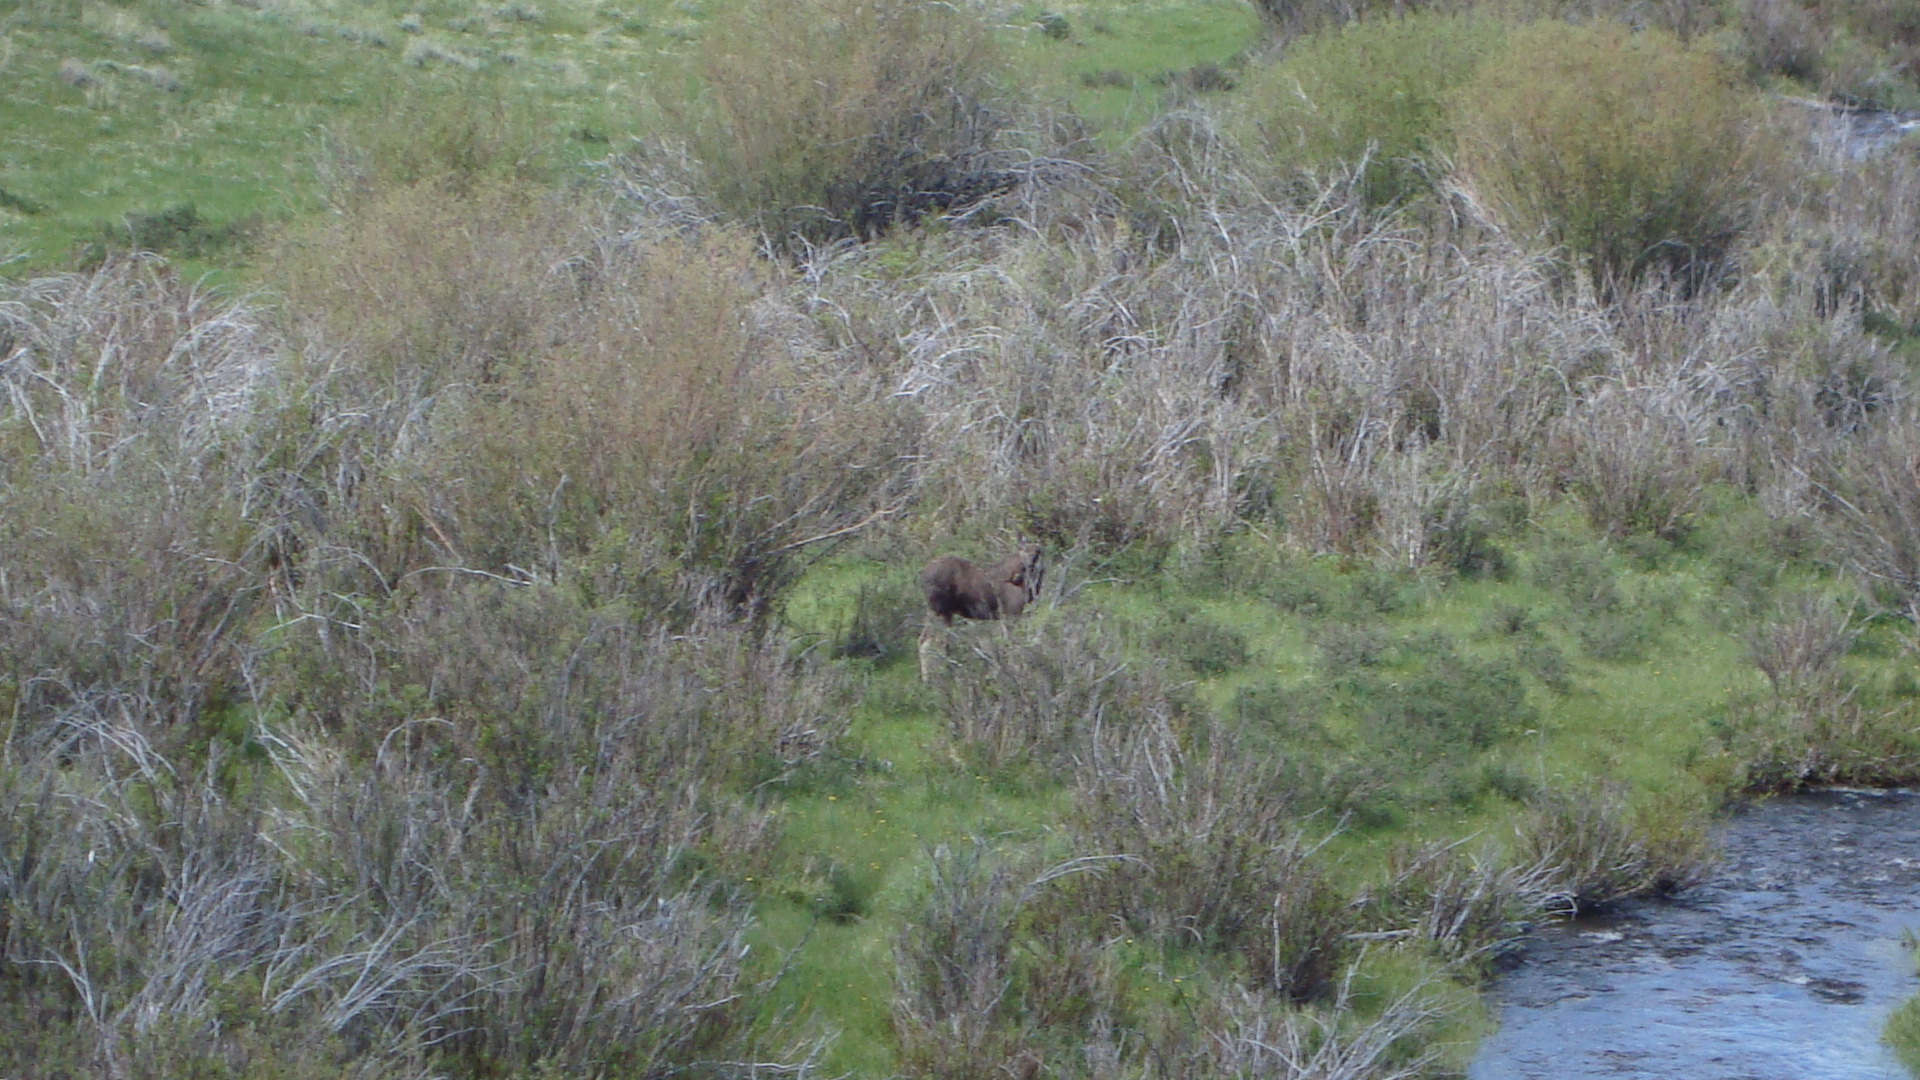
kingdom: Animalia
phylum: Chordata
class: Mammalia
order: Artiodactyla
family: Cervidae
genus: Alces
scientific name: Alces alces
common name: Moose
